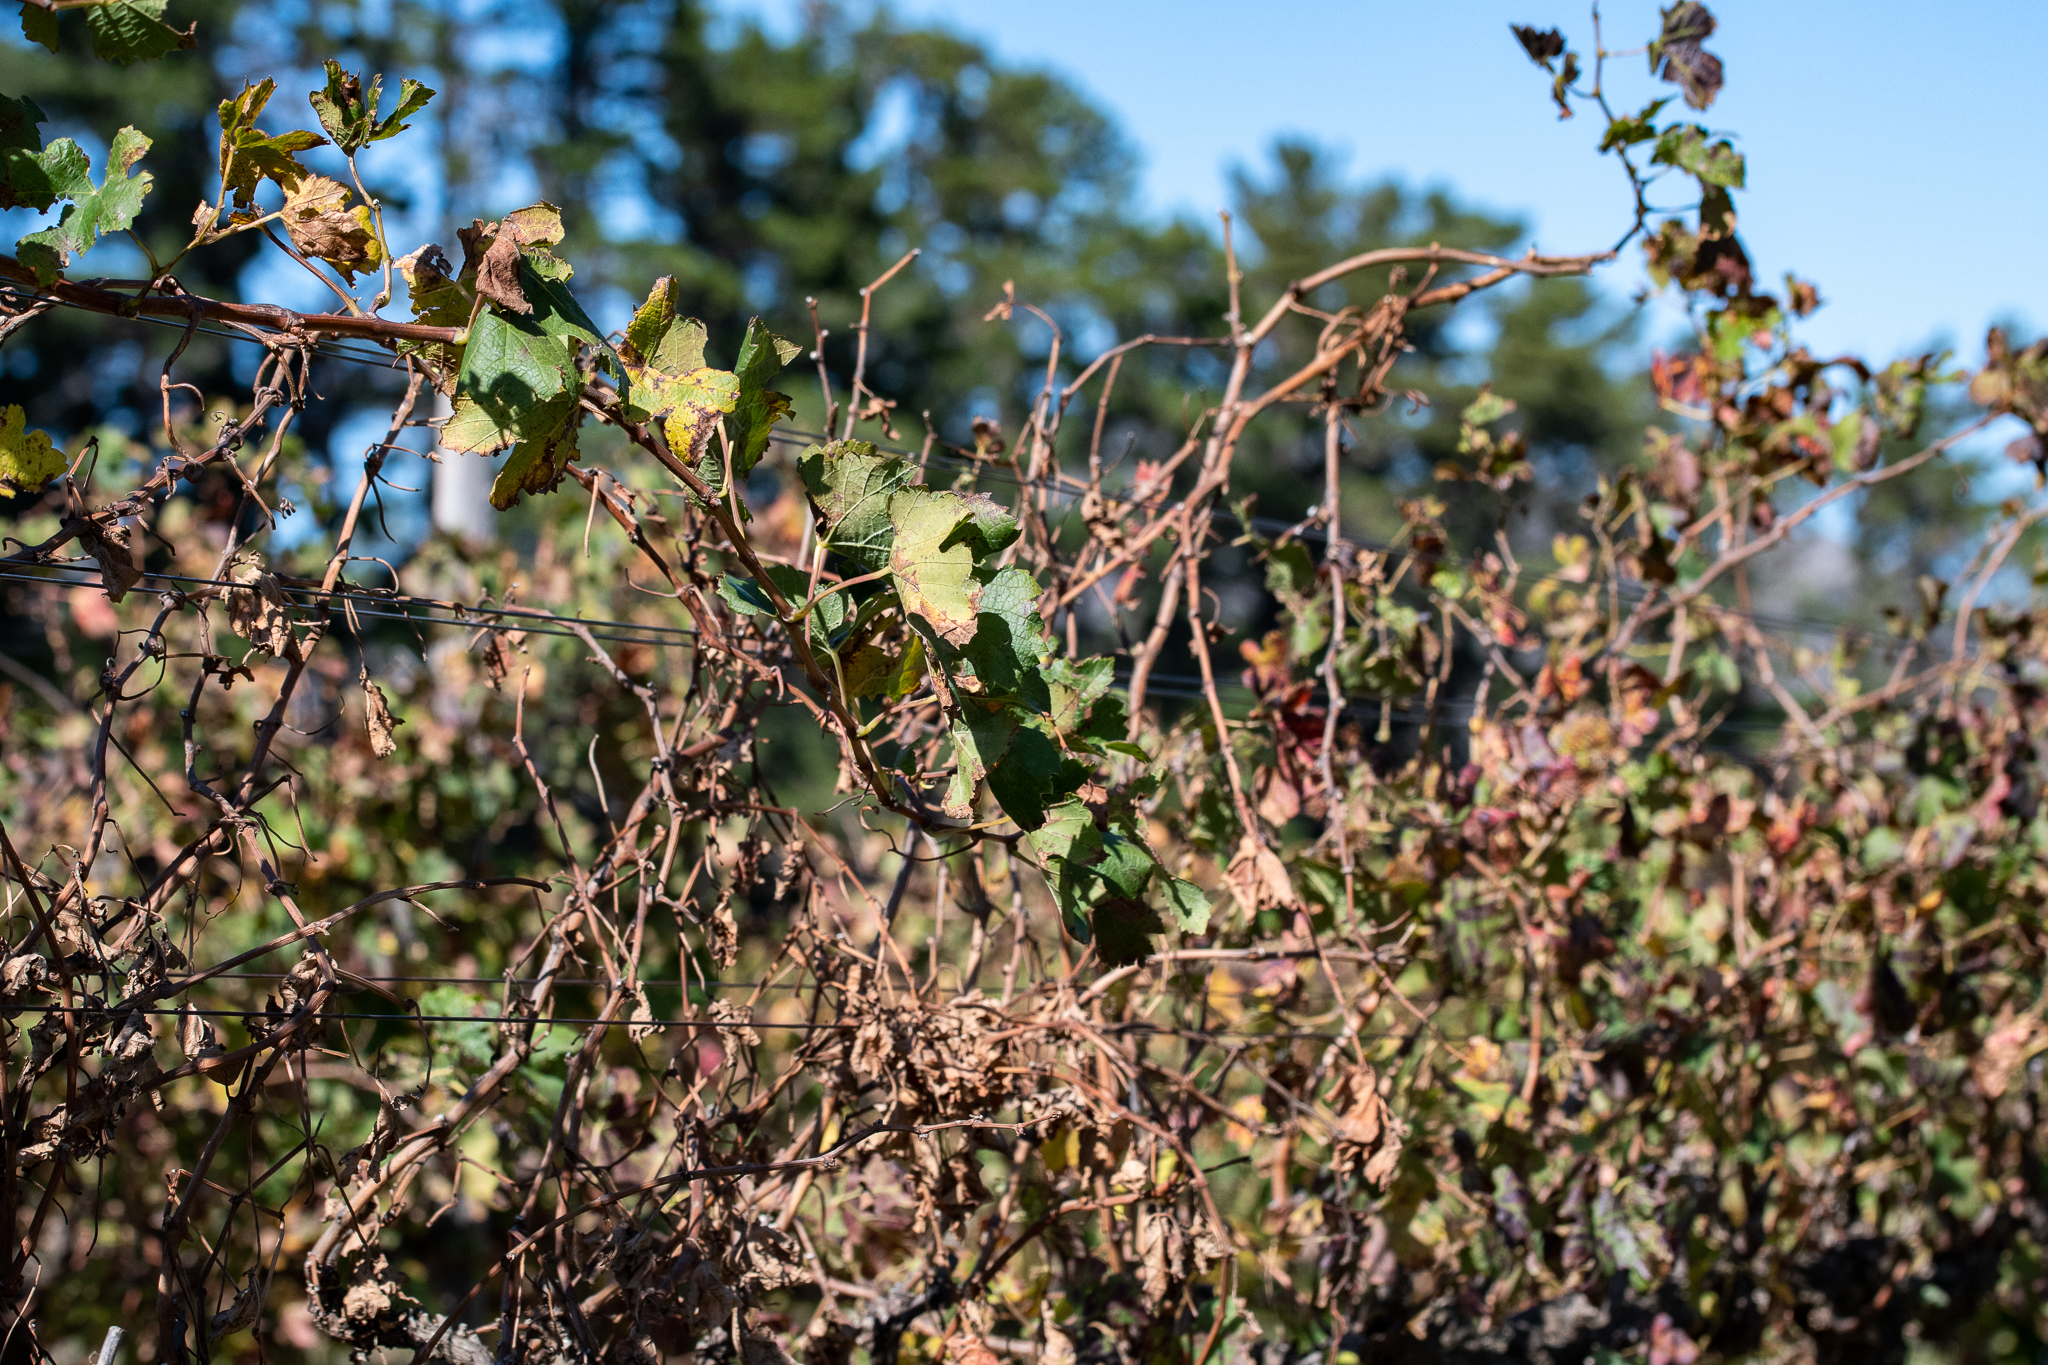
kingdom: Plantae
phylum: Tracheophyta
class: Magnoliopsida
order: Vitales
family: Vitaceae
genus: Vitis
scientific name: Vitis vinifera
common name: Grape-vine
